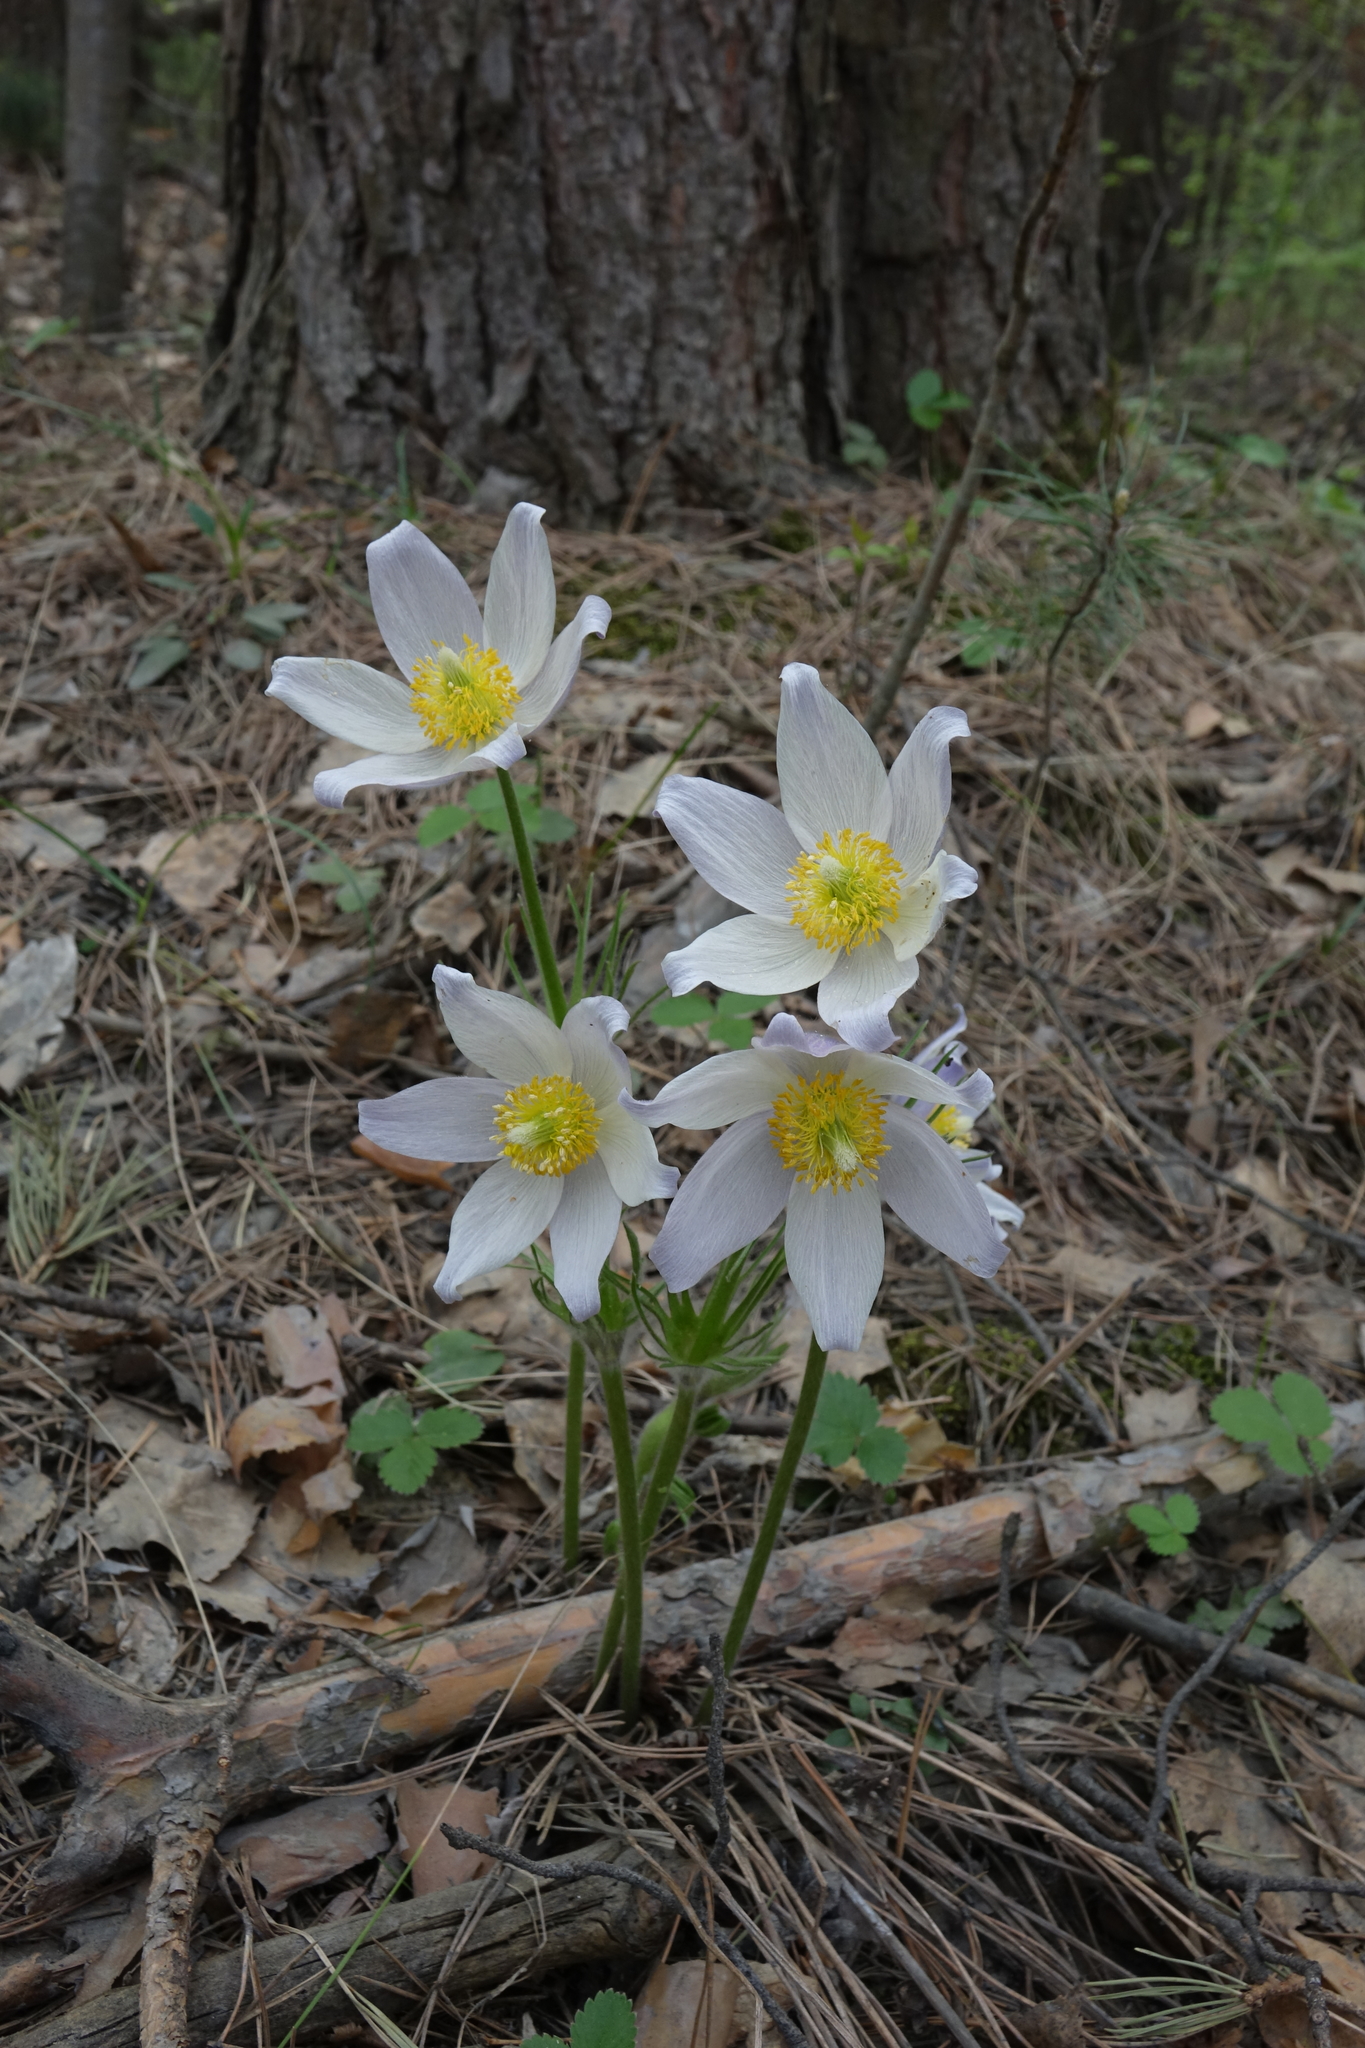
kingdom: Plantae
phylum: Tracheophyta
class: Magnoliopsida
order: Ranunculales
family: Ranunculaceae
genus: Pulsatilla
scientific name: Pulsatilla patens
